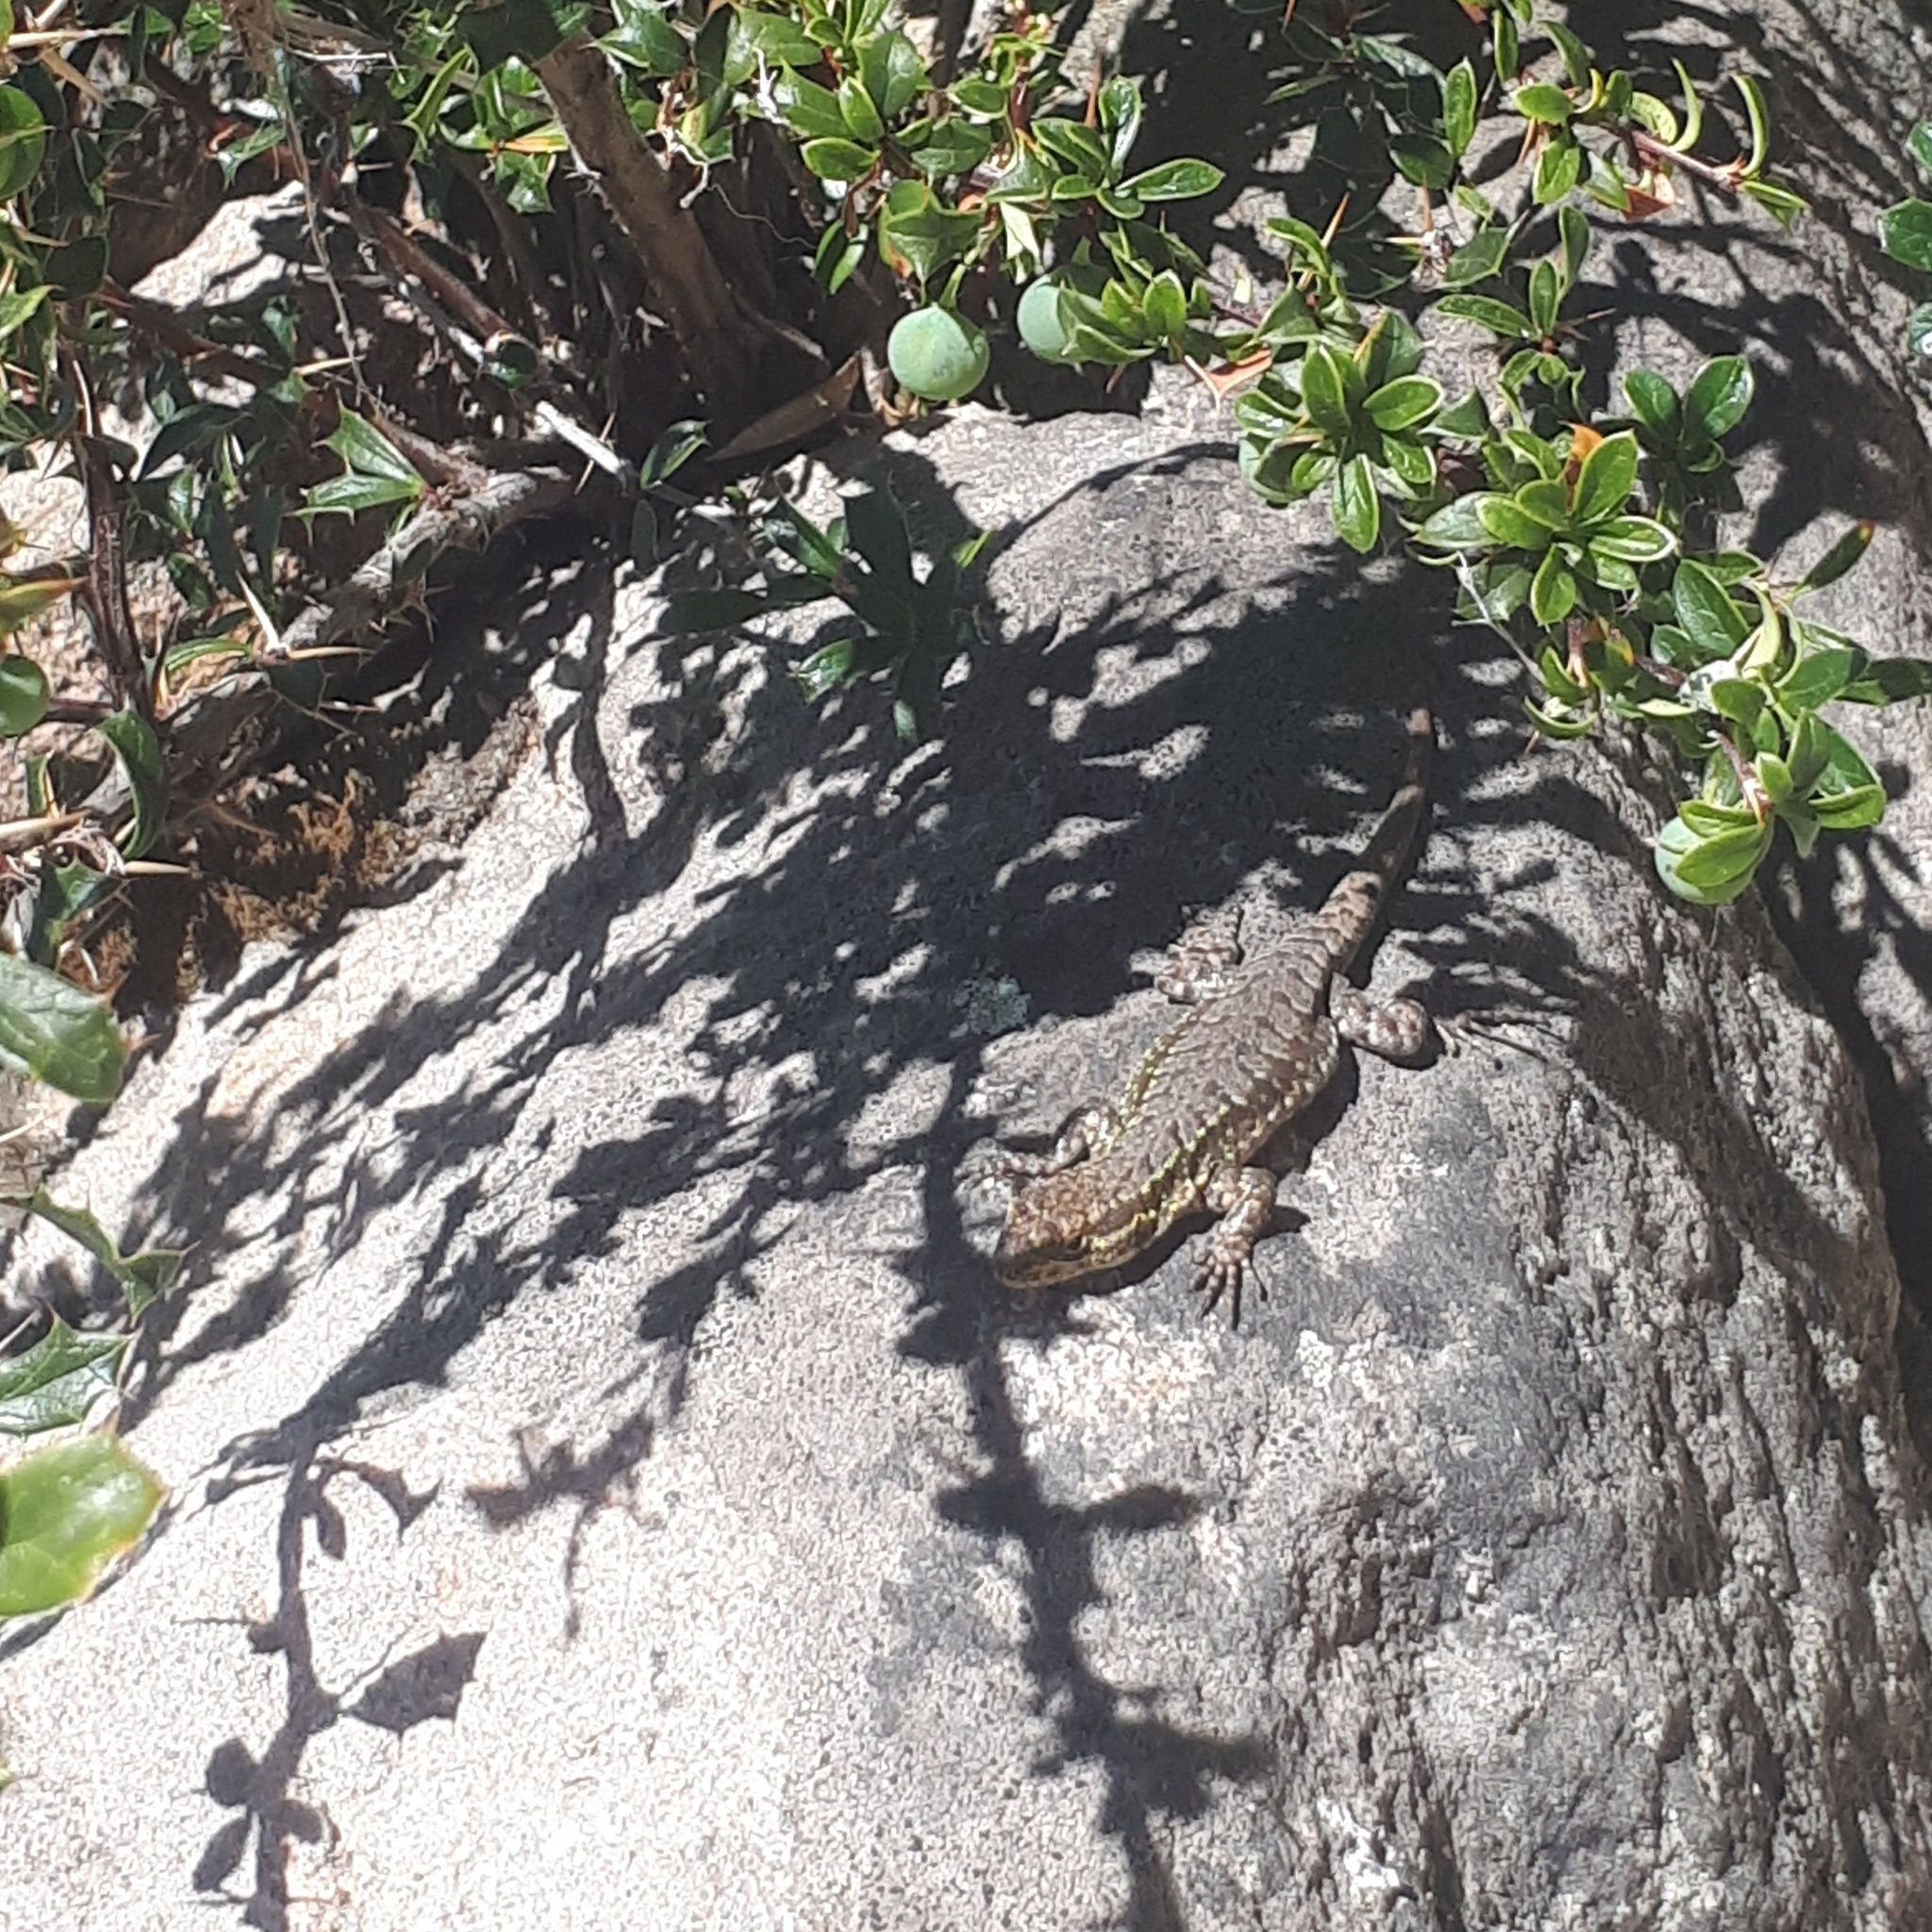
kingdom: Animalia
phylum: Chordata
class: Squamata
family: Liolaemidae
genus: Liolaemus
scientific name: Liolaemus tenuis
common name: Thin tree iguana
